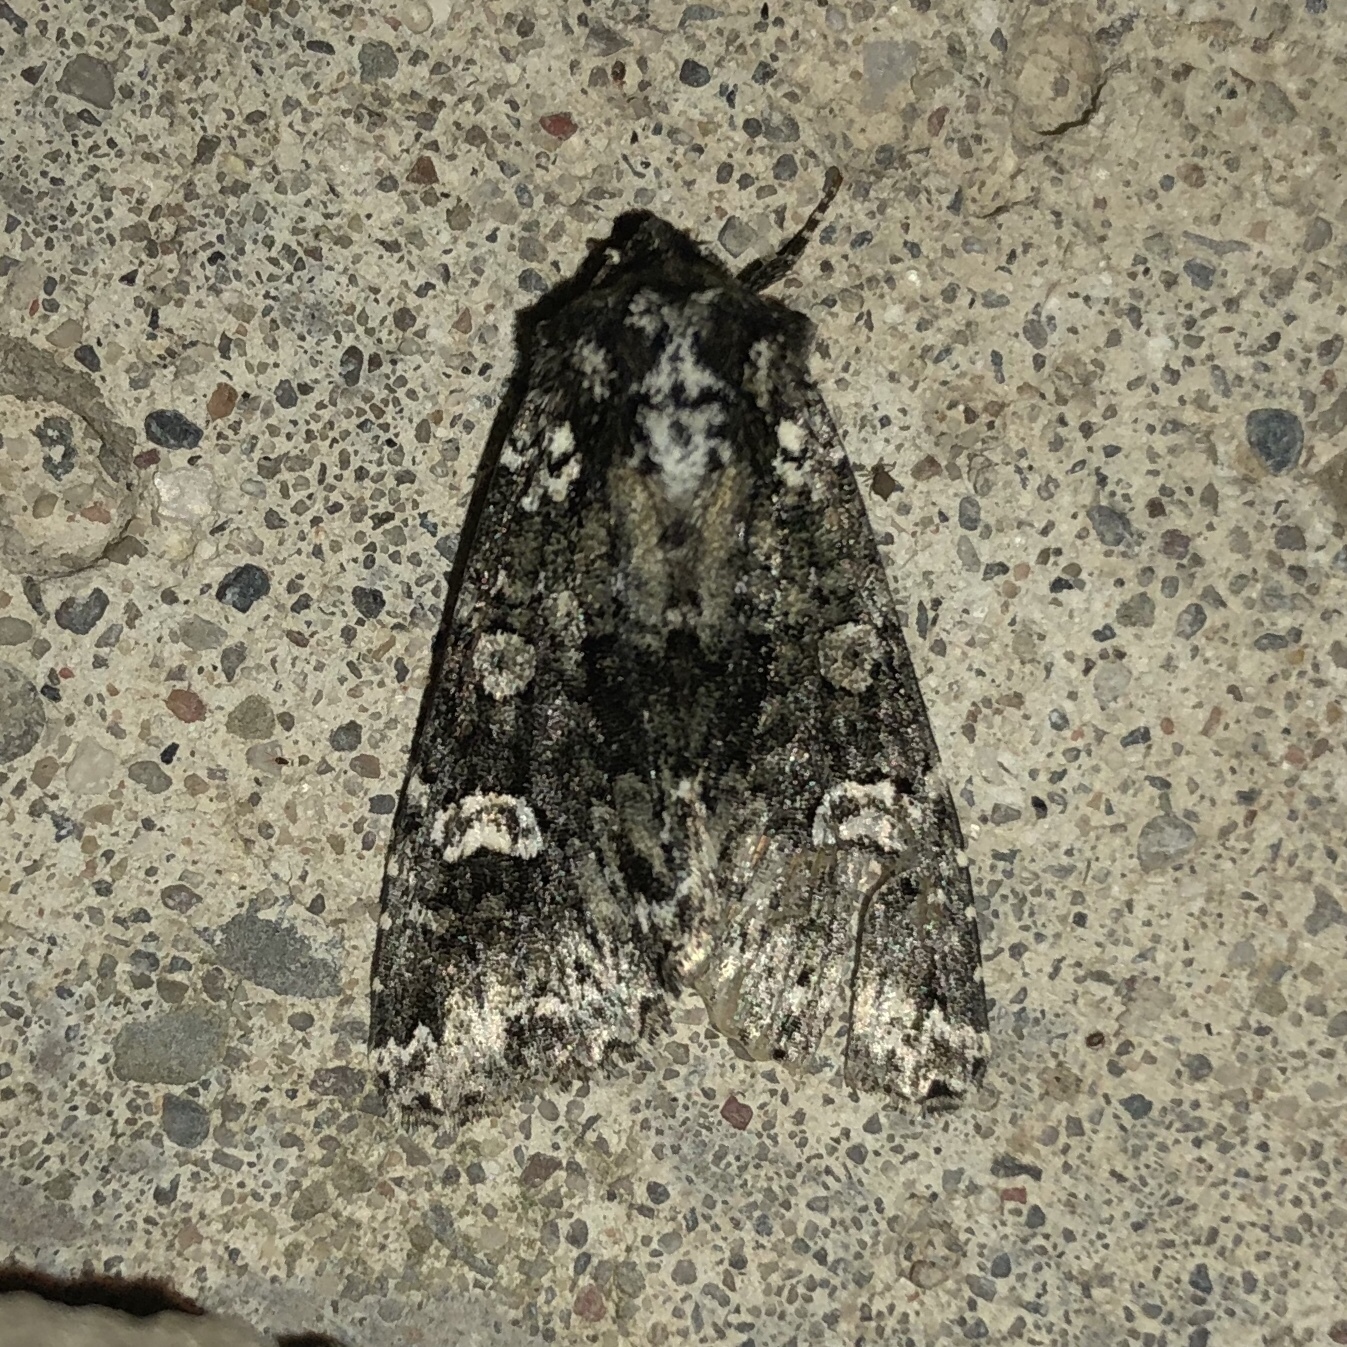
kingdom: Animalia
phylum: Arthropoda
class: Insecta
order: Lepidoptera
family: Noctuidae
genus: Melanchra
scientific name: Melanchra adjuncta
